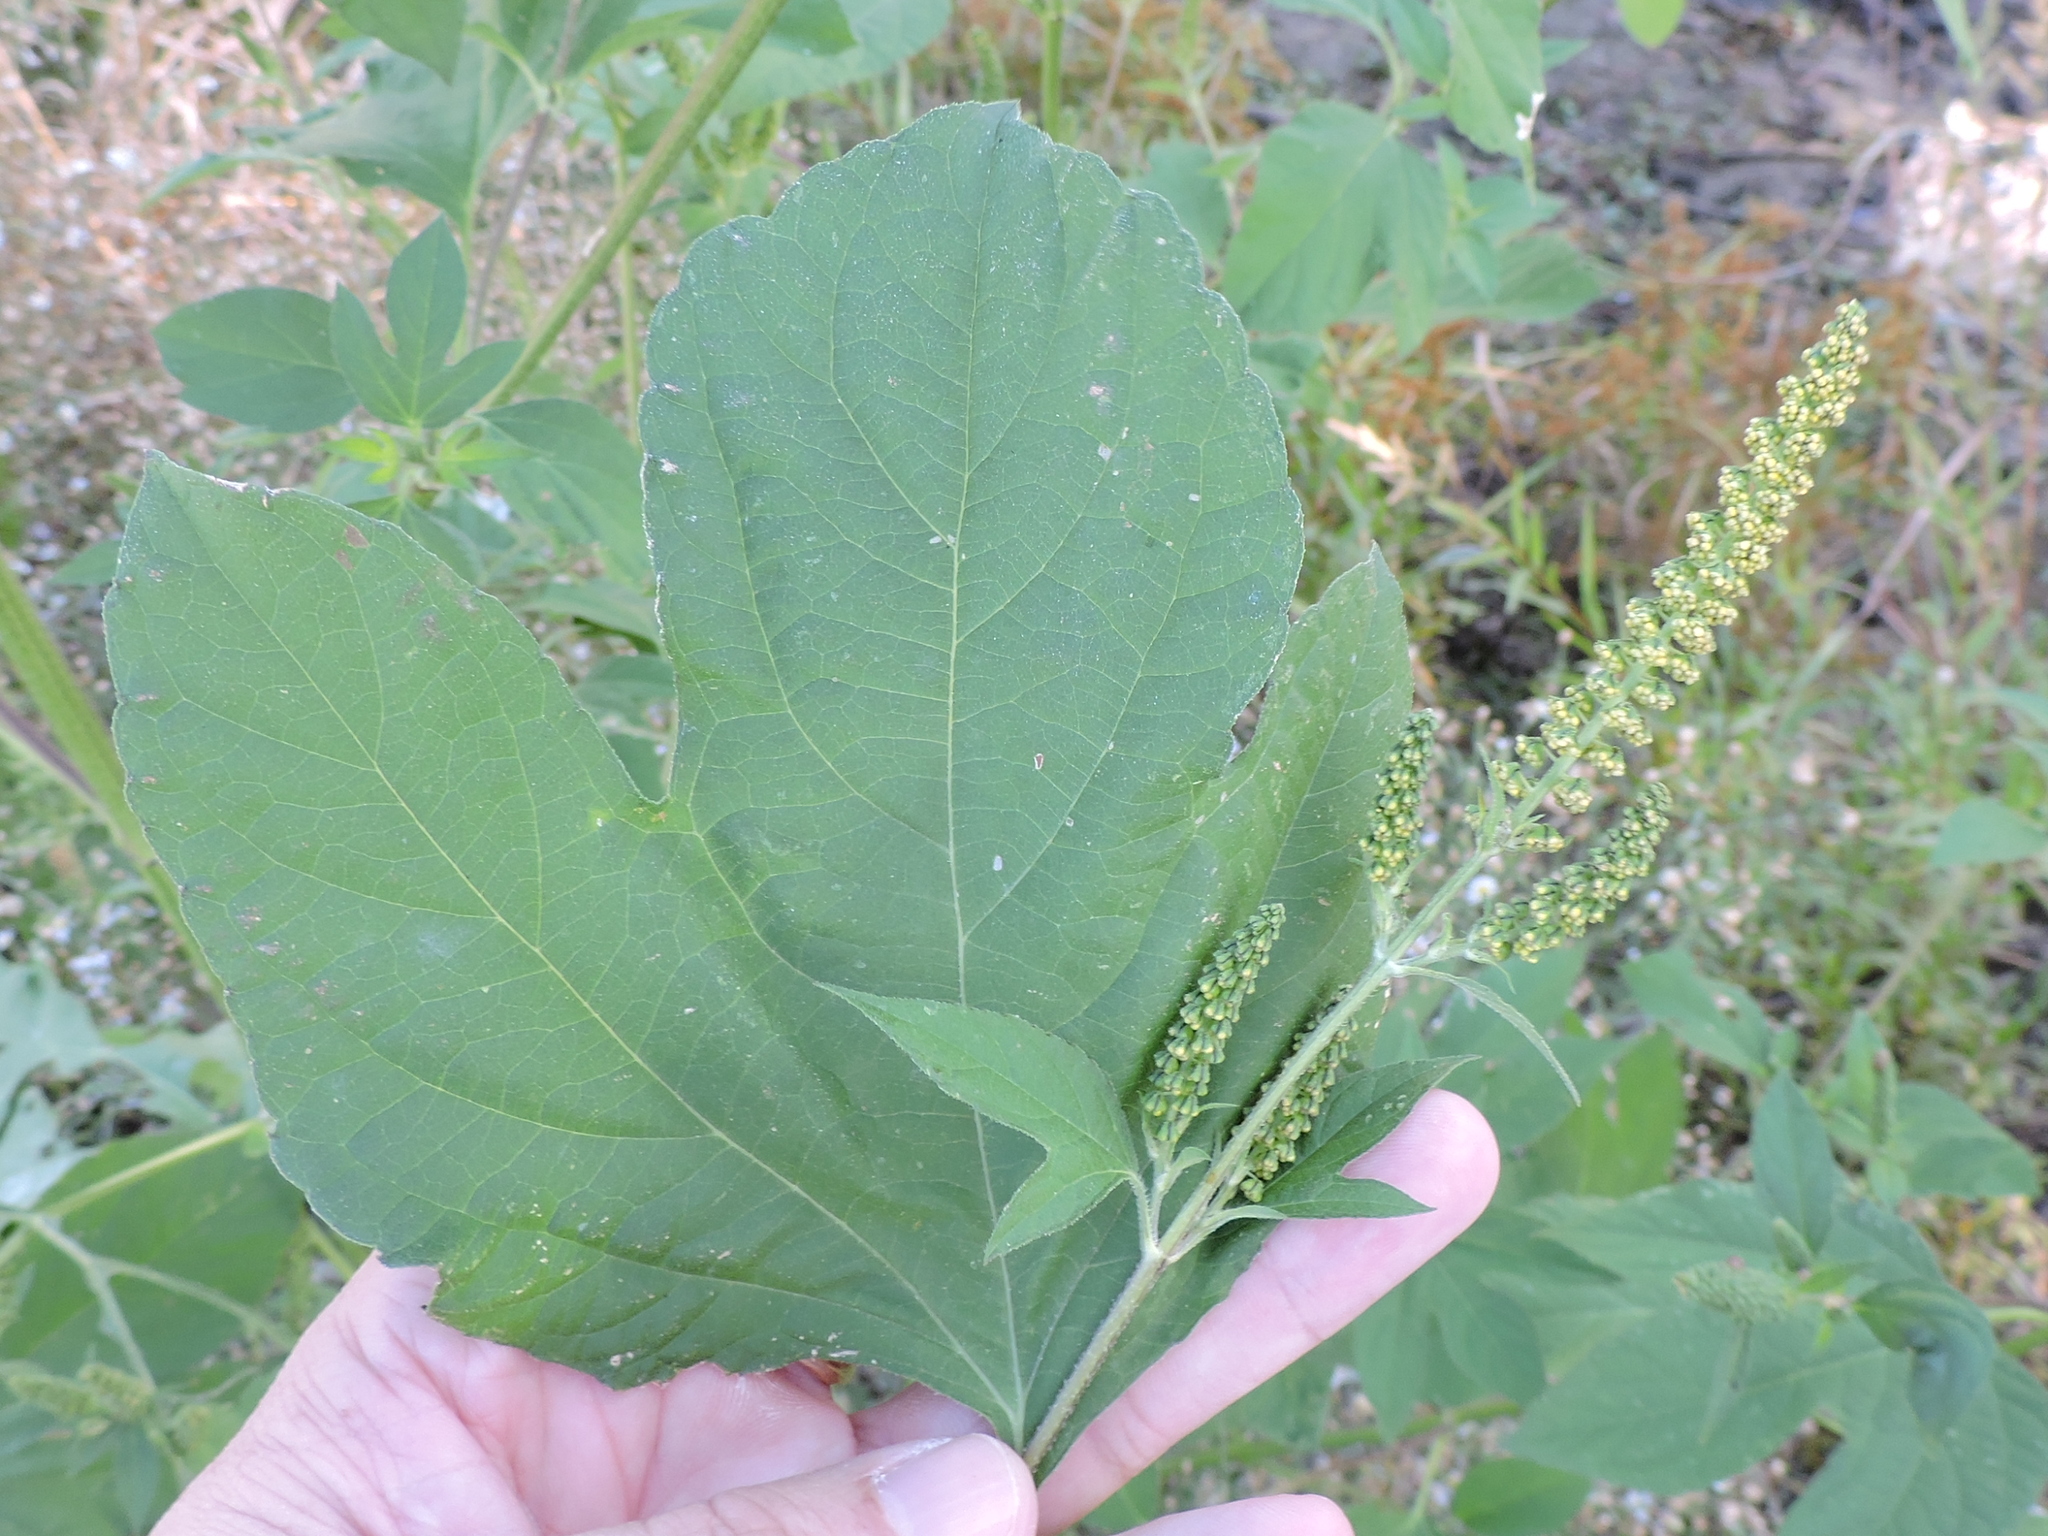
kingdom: Plantae
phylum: Tracheophyta
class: Magnoliopsida
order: Asterales
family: Asteraceae
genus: Ambrosia
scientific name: Ambrosia trifida
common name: Giant ragweed
